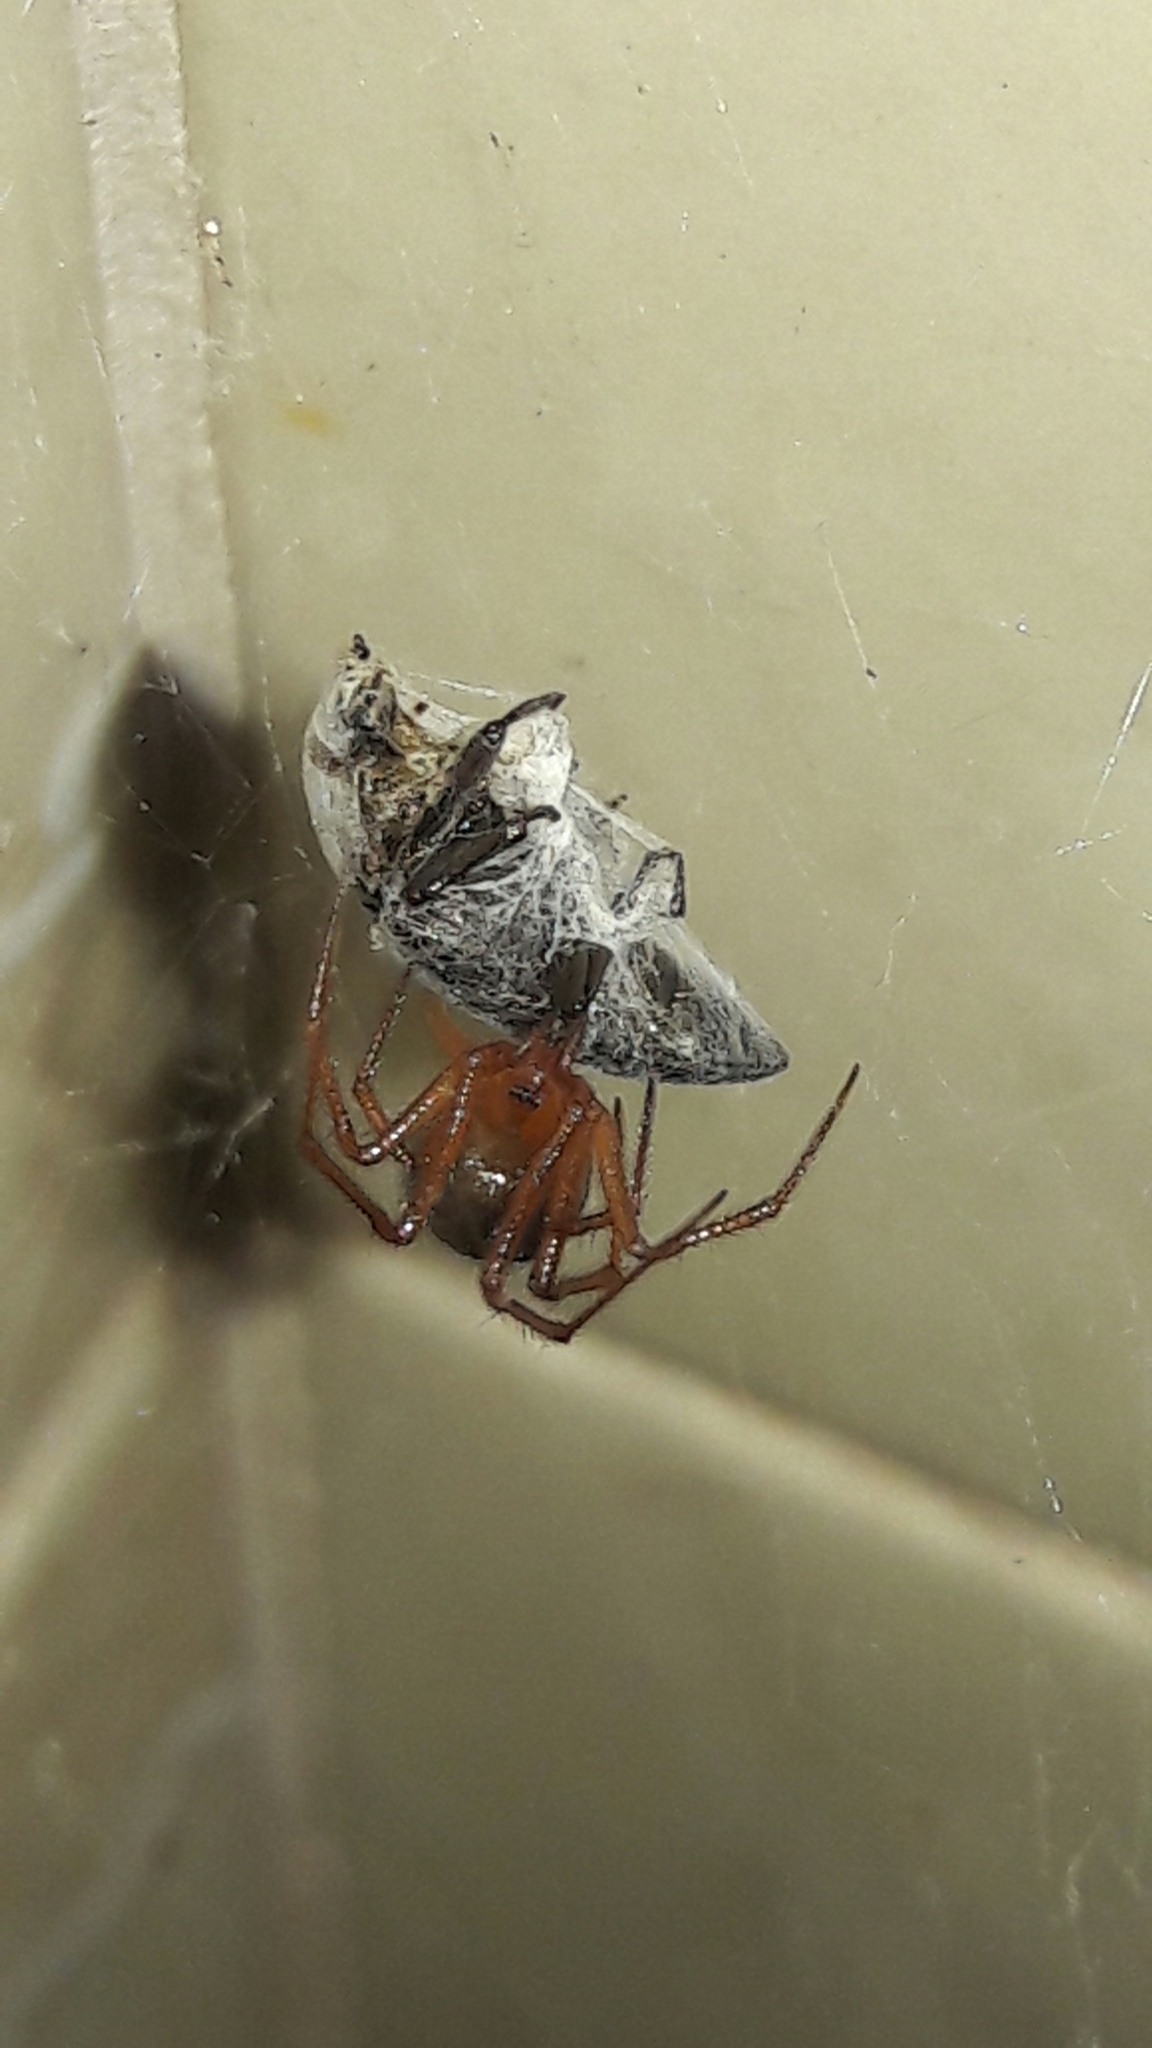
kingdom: Animalia
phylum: Arthropoda
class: Arachnida
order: Araneae
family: Theridiidae
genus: Nesticodes
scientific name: Nesticodes rufipes
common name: Cobweb spiders
